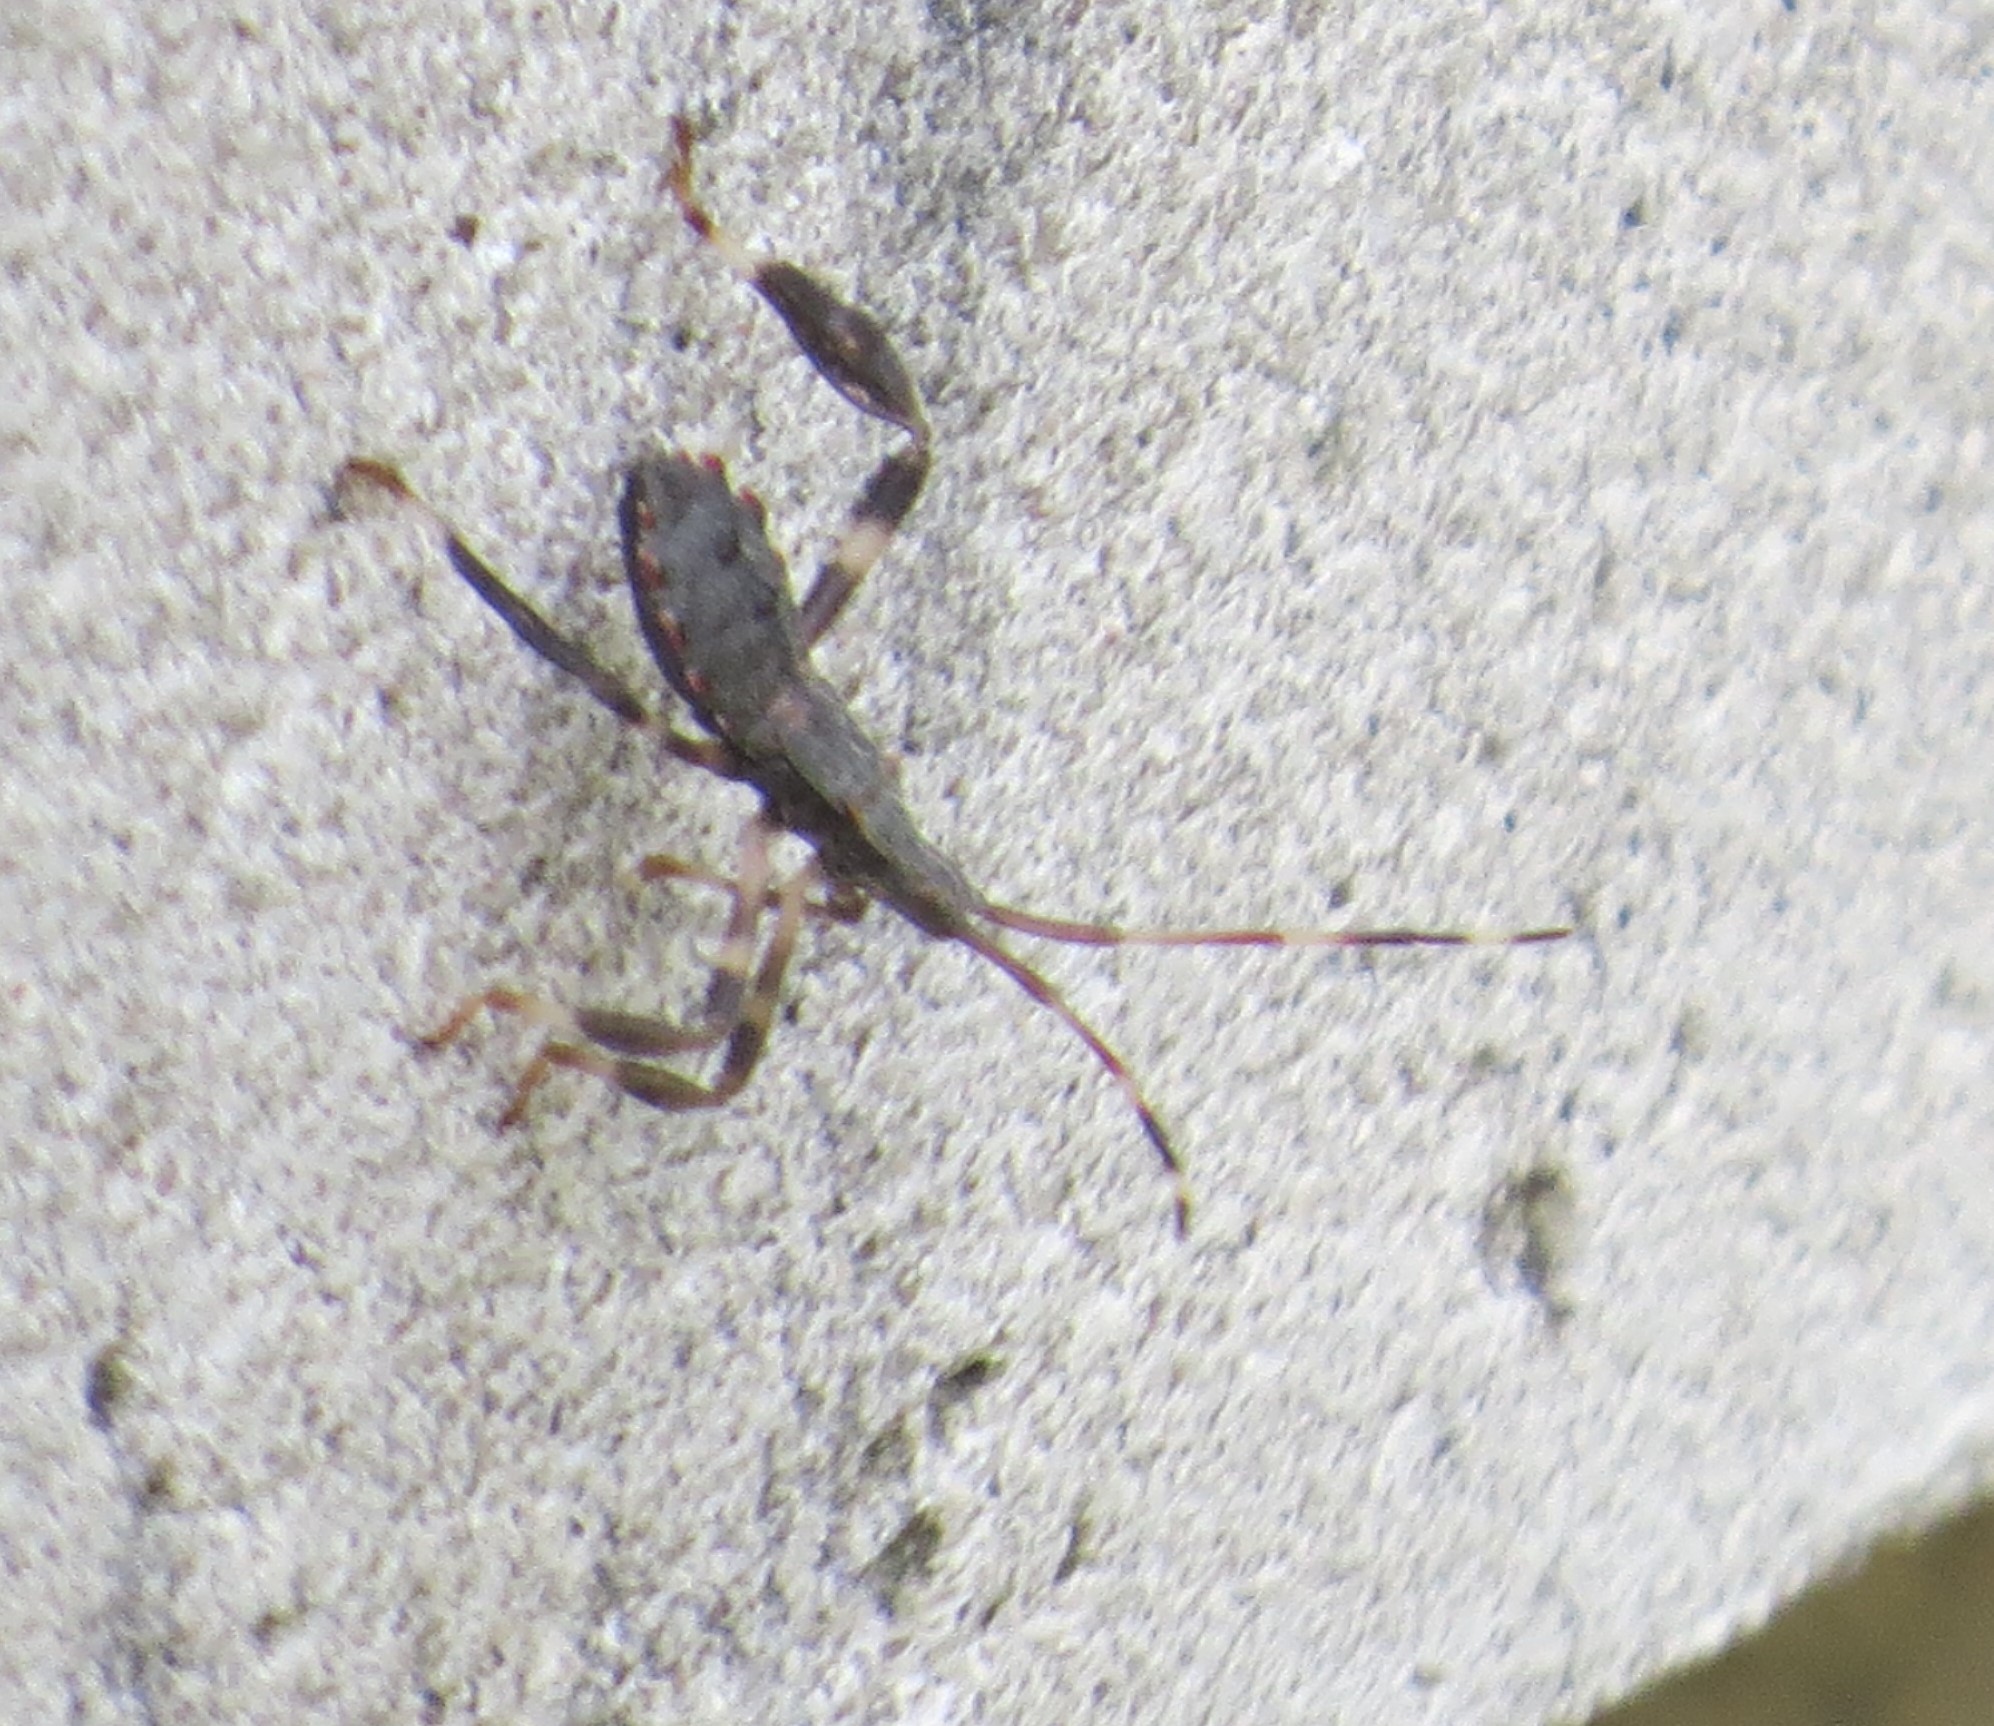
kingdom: Animalia
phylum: Arthropoda
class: Insecta
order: Hemiptera
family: Coreidae
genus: Acanthocephala
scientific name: Acanthocephala terminalis
